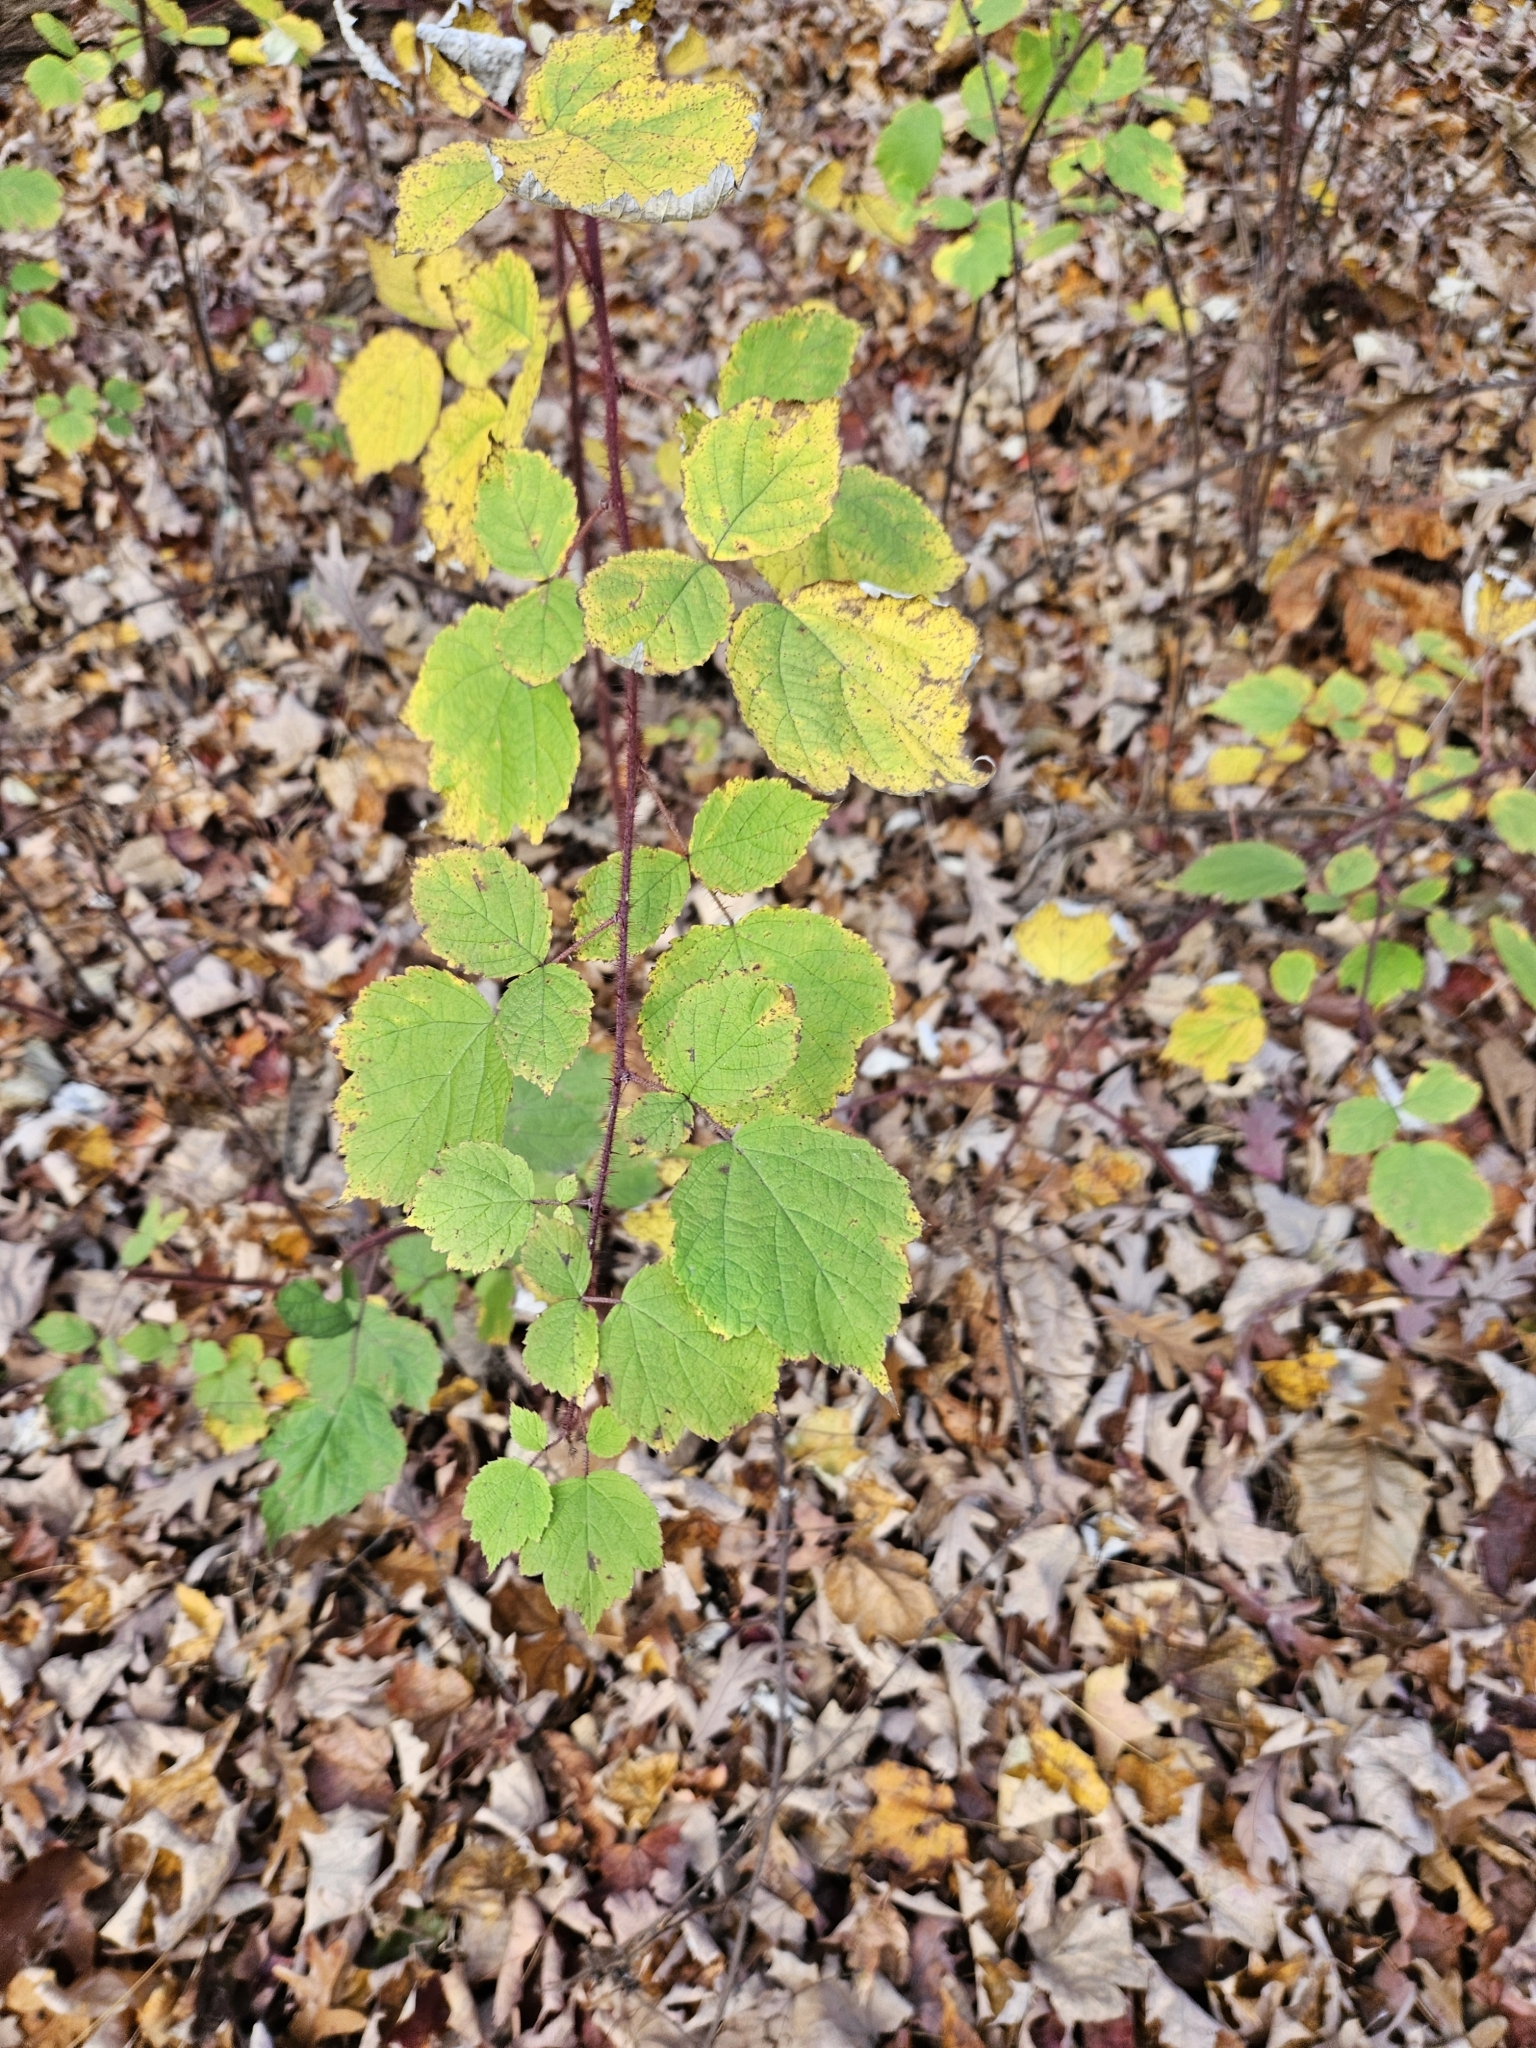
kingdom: Plantae
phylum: Tracheophyta
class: Magnoliopsida
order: Rosales
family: Rosaceae
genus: Rubus
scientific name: Rubus phoenicolasius
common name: Japanese wineberry
